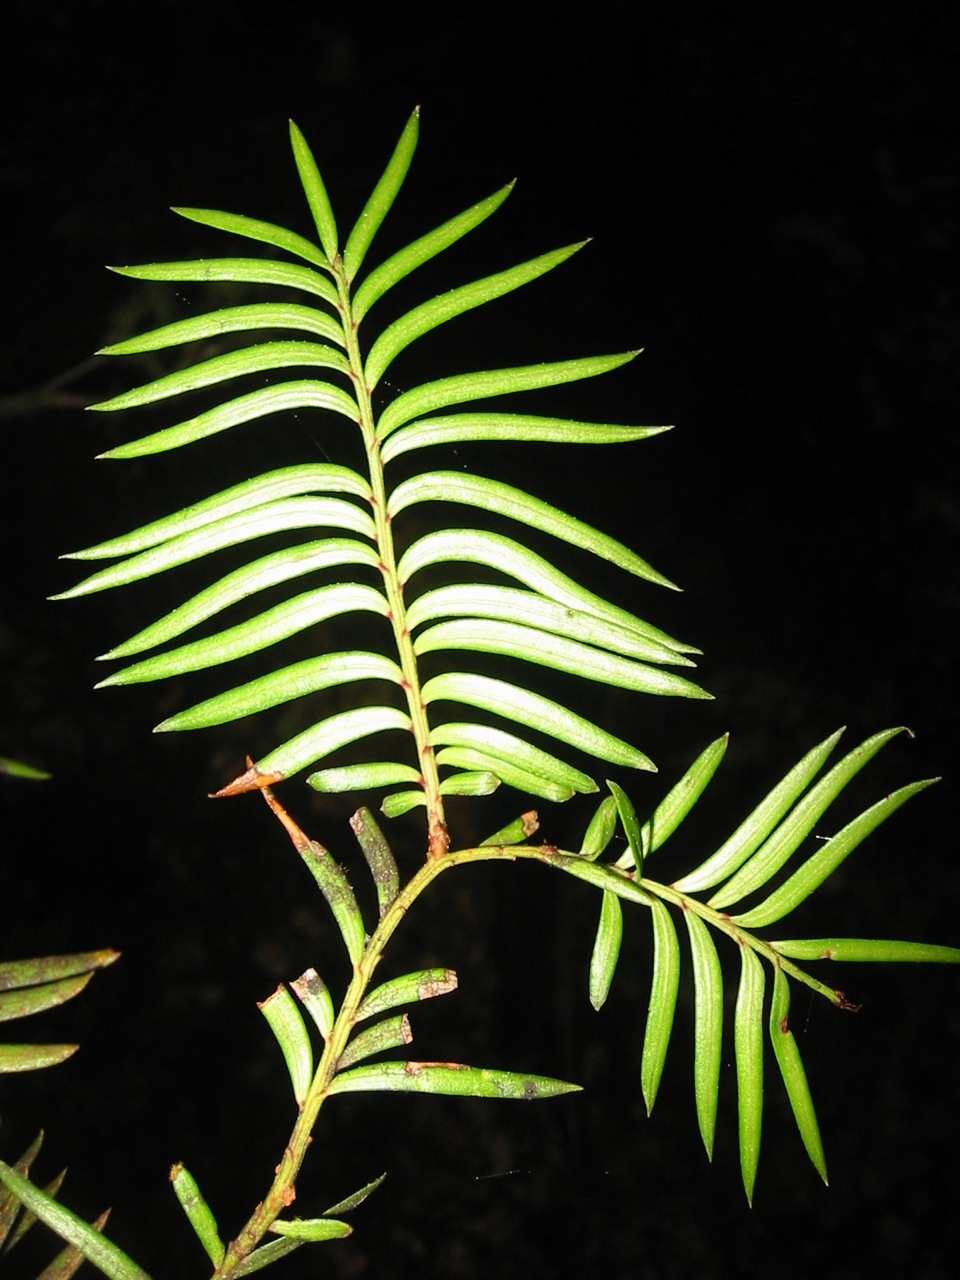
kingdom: Plantae
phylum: Tracheophyta
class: Pinopsida
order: Pinales
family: Podocarpaceae
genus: Prumnopitys
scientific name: Prumnopitys ferruginea
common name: Brown pine
